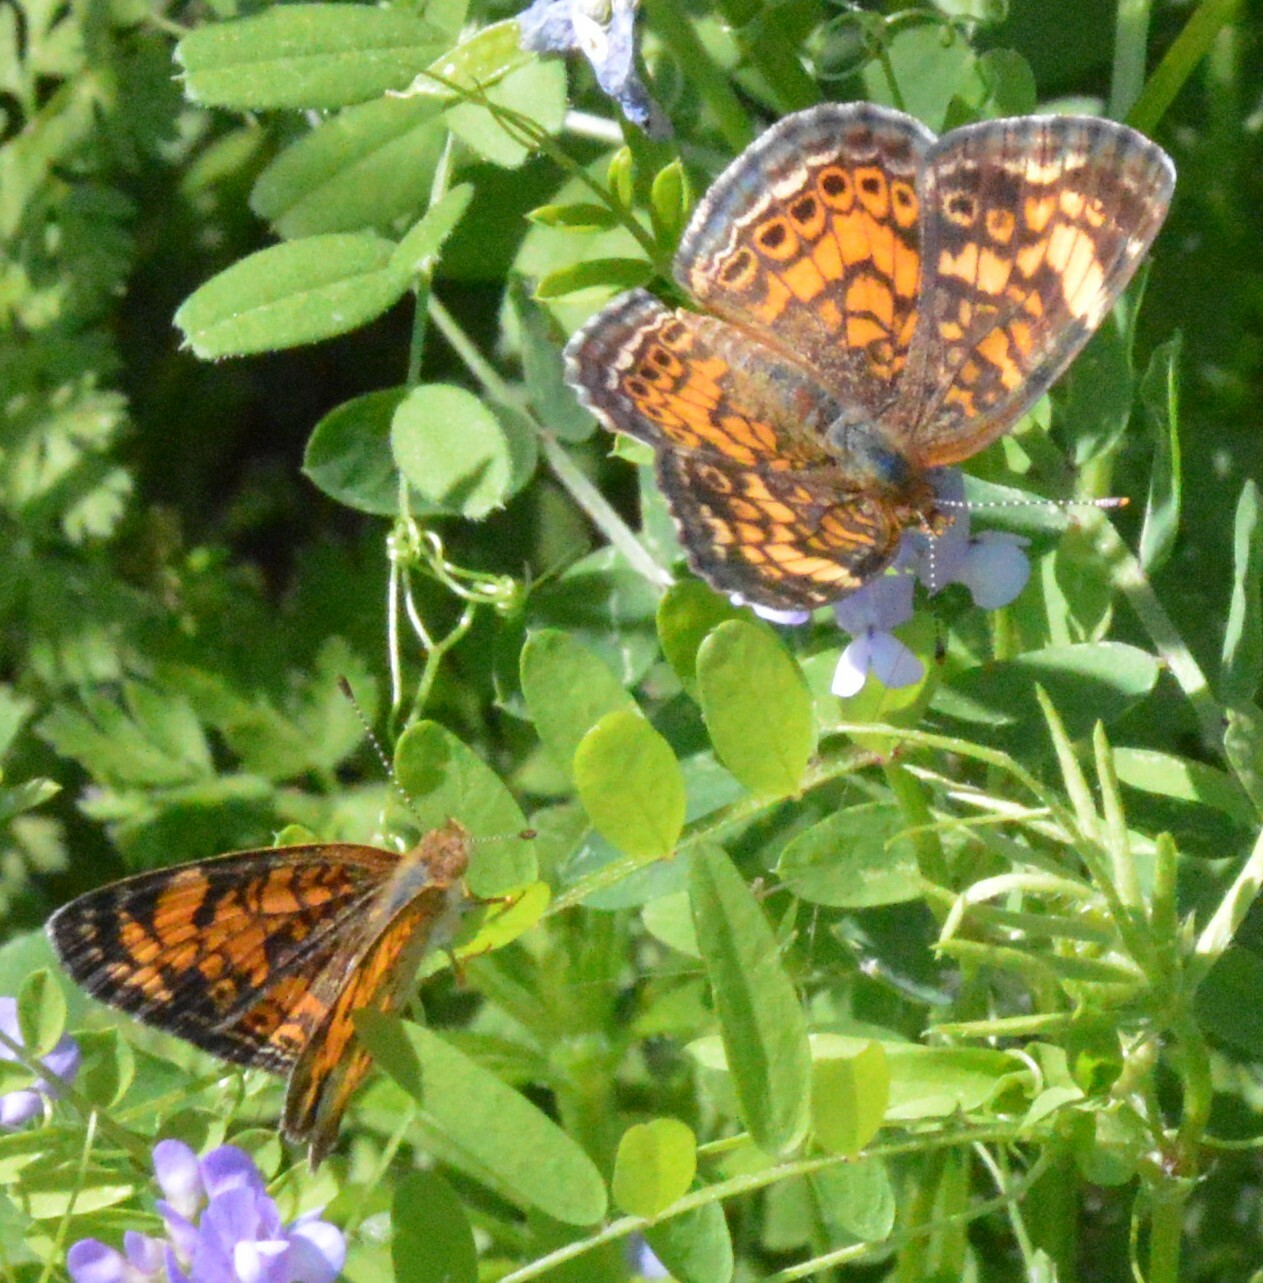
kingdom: Animalia
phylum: Arthropoda
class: Insecta
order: Lepidoptera
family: Nymphalidae
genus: Phyciodes
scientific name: Phyciodes tharos
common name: Pearl crescent
